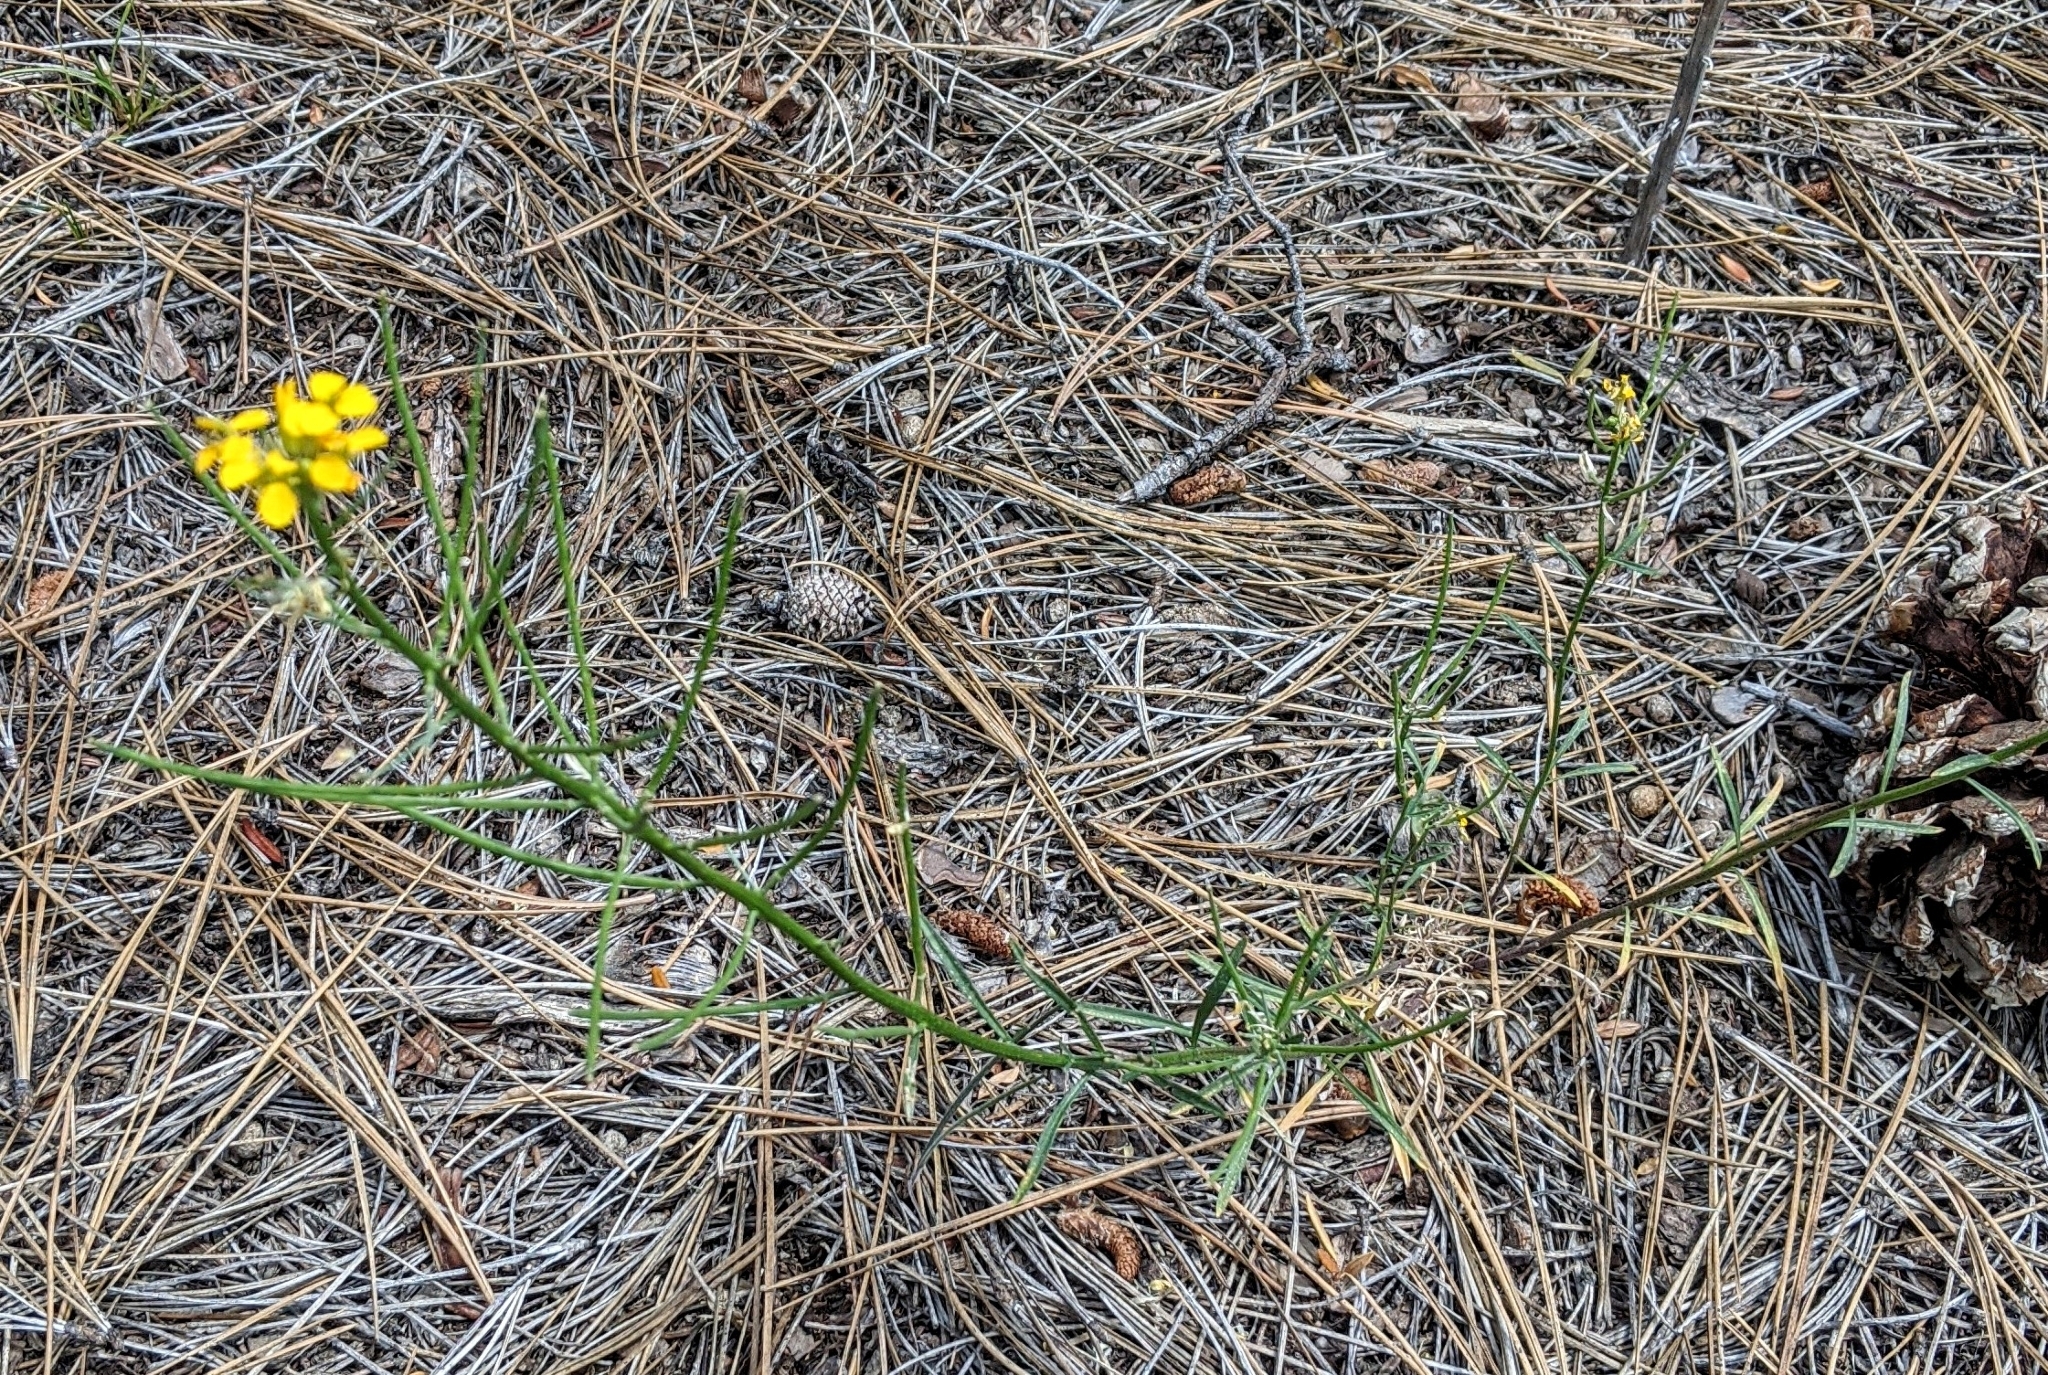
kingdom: Plantae
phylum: Tracheophyta
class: Magnoliopsida
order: Brassicales
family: Brassicaceae
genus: Erysimum
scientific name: Erysimum capitatum
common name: Western wallflower
